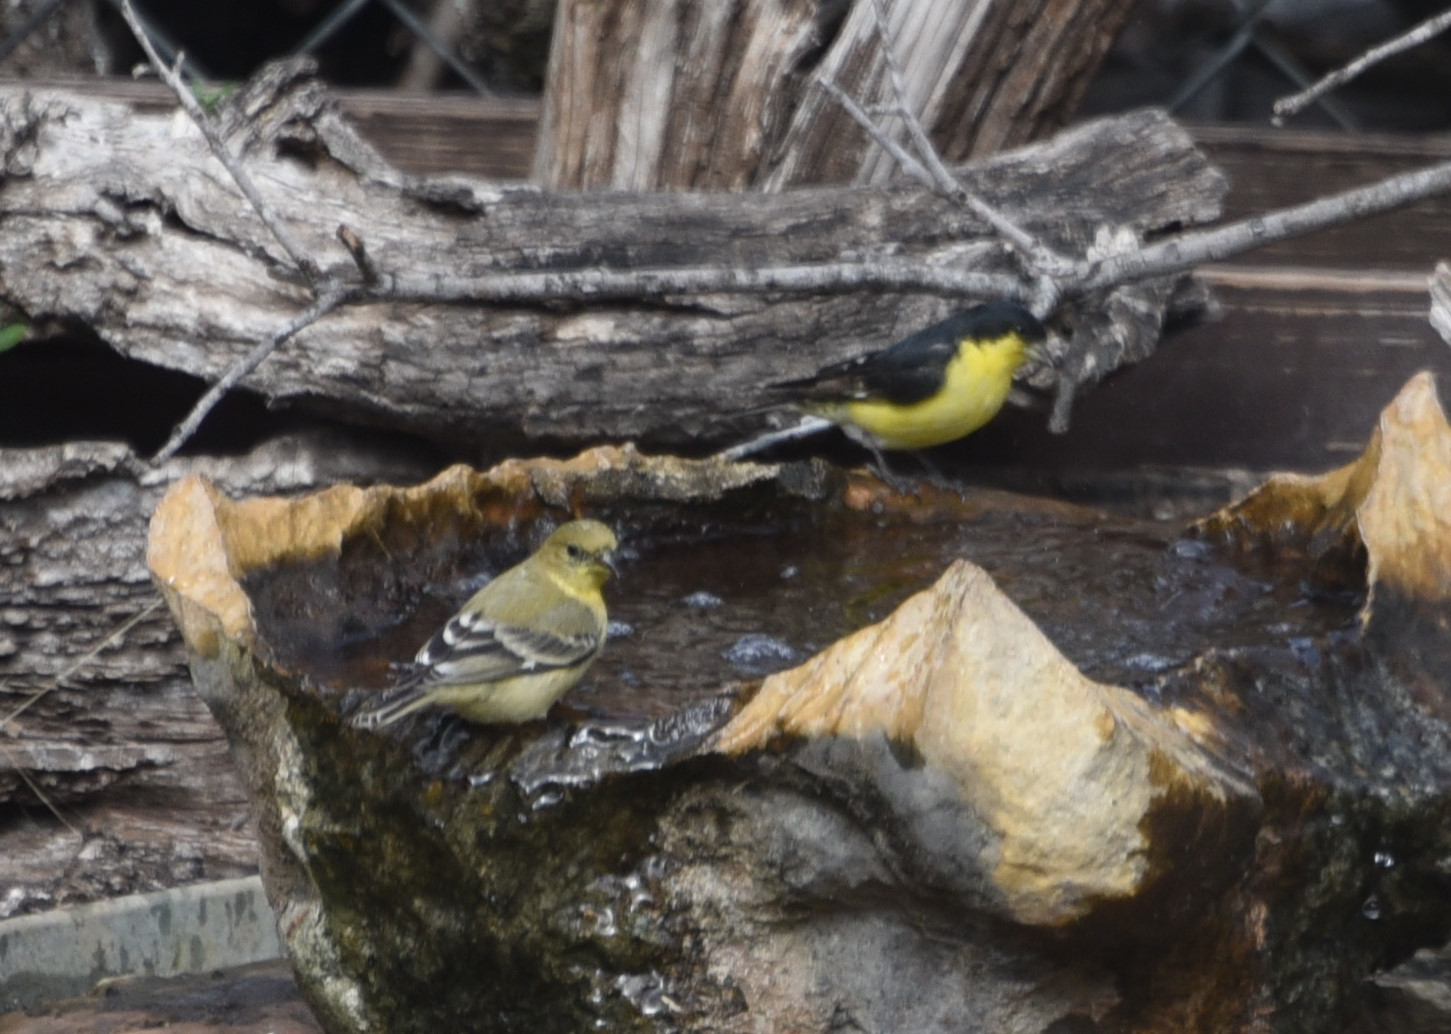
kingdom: Animalia
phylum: Chordata
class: Aves
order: Passeriformes
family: Fringillidae
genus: Spinus
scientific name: Spinus psaltria
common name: Lesser goldfinch
